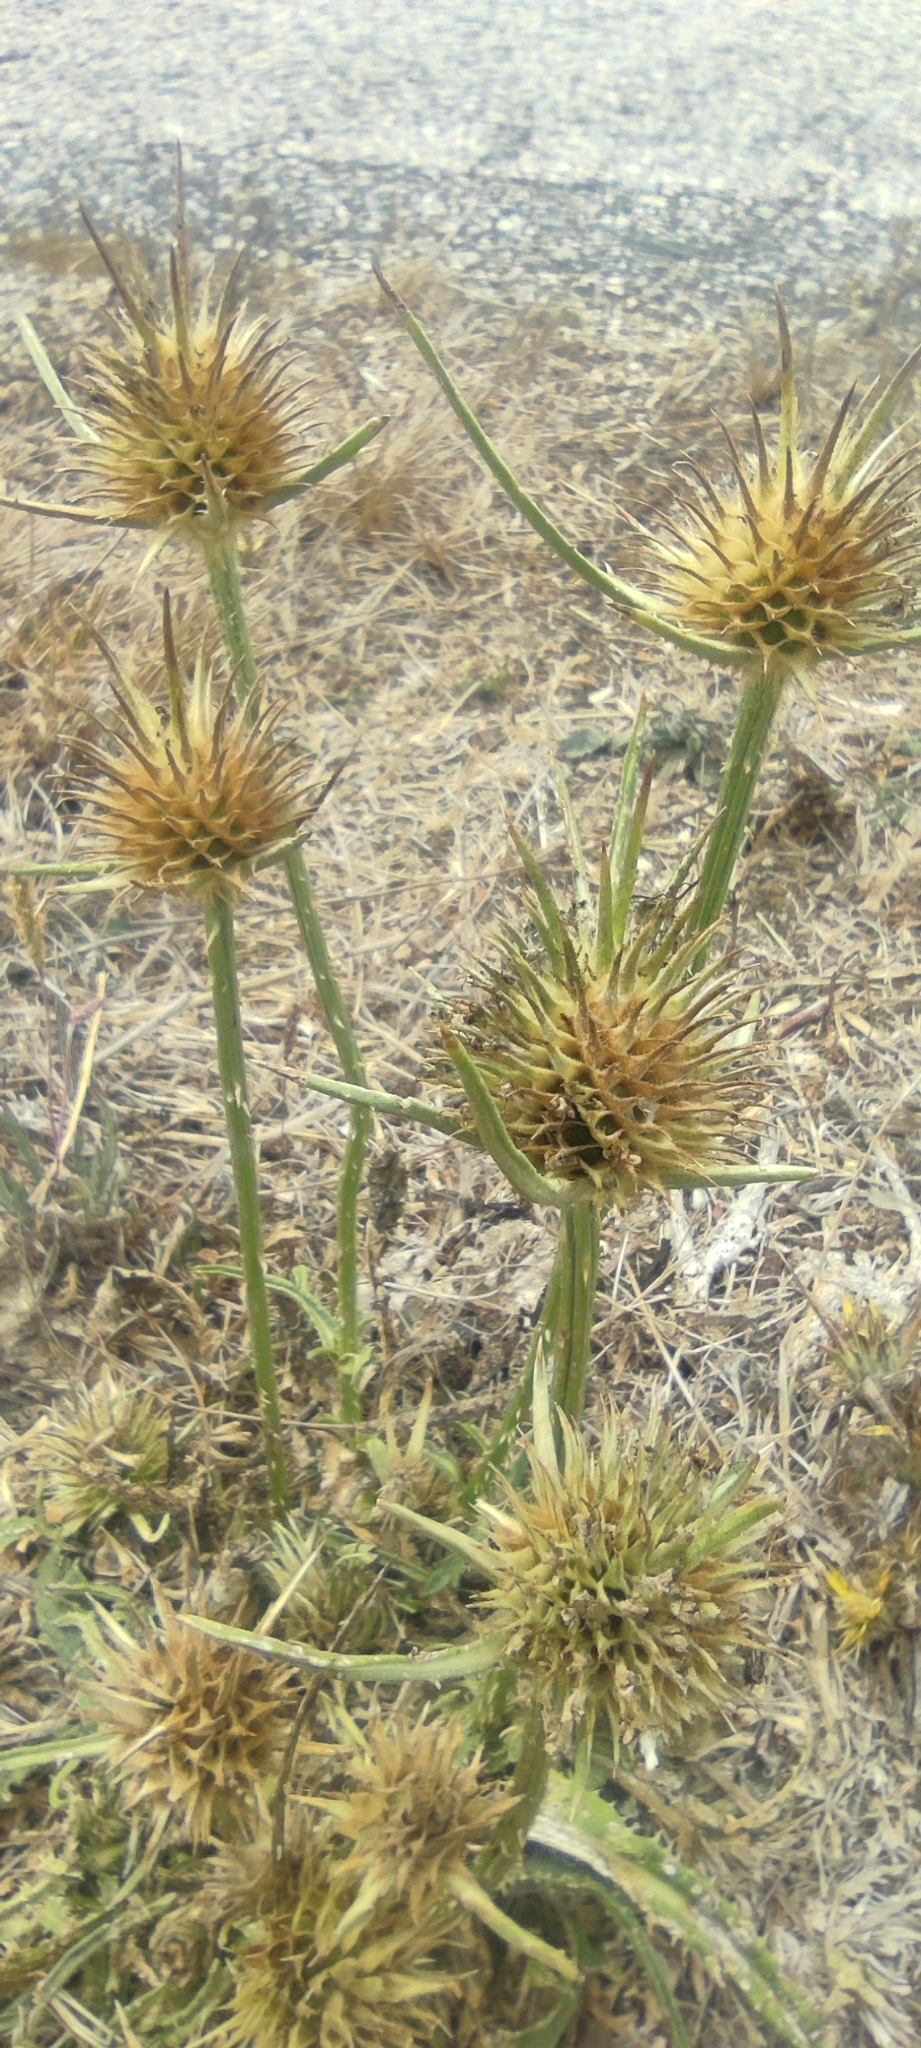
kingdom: Plantae
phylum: Tracheophyta
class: Magnoliopsida
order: Dipsacales
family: Caprifoliaceae
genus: Dipsacus
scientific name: Dipsacus comosus
